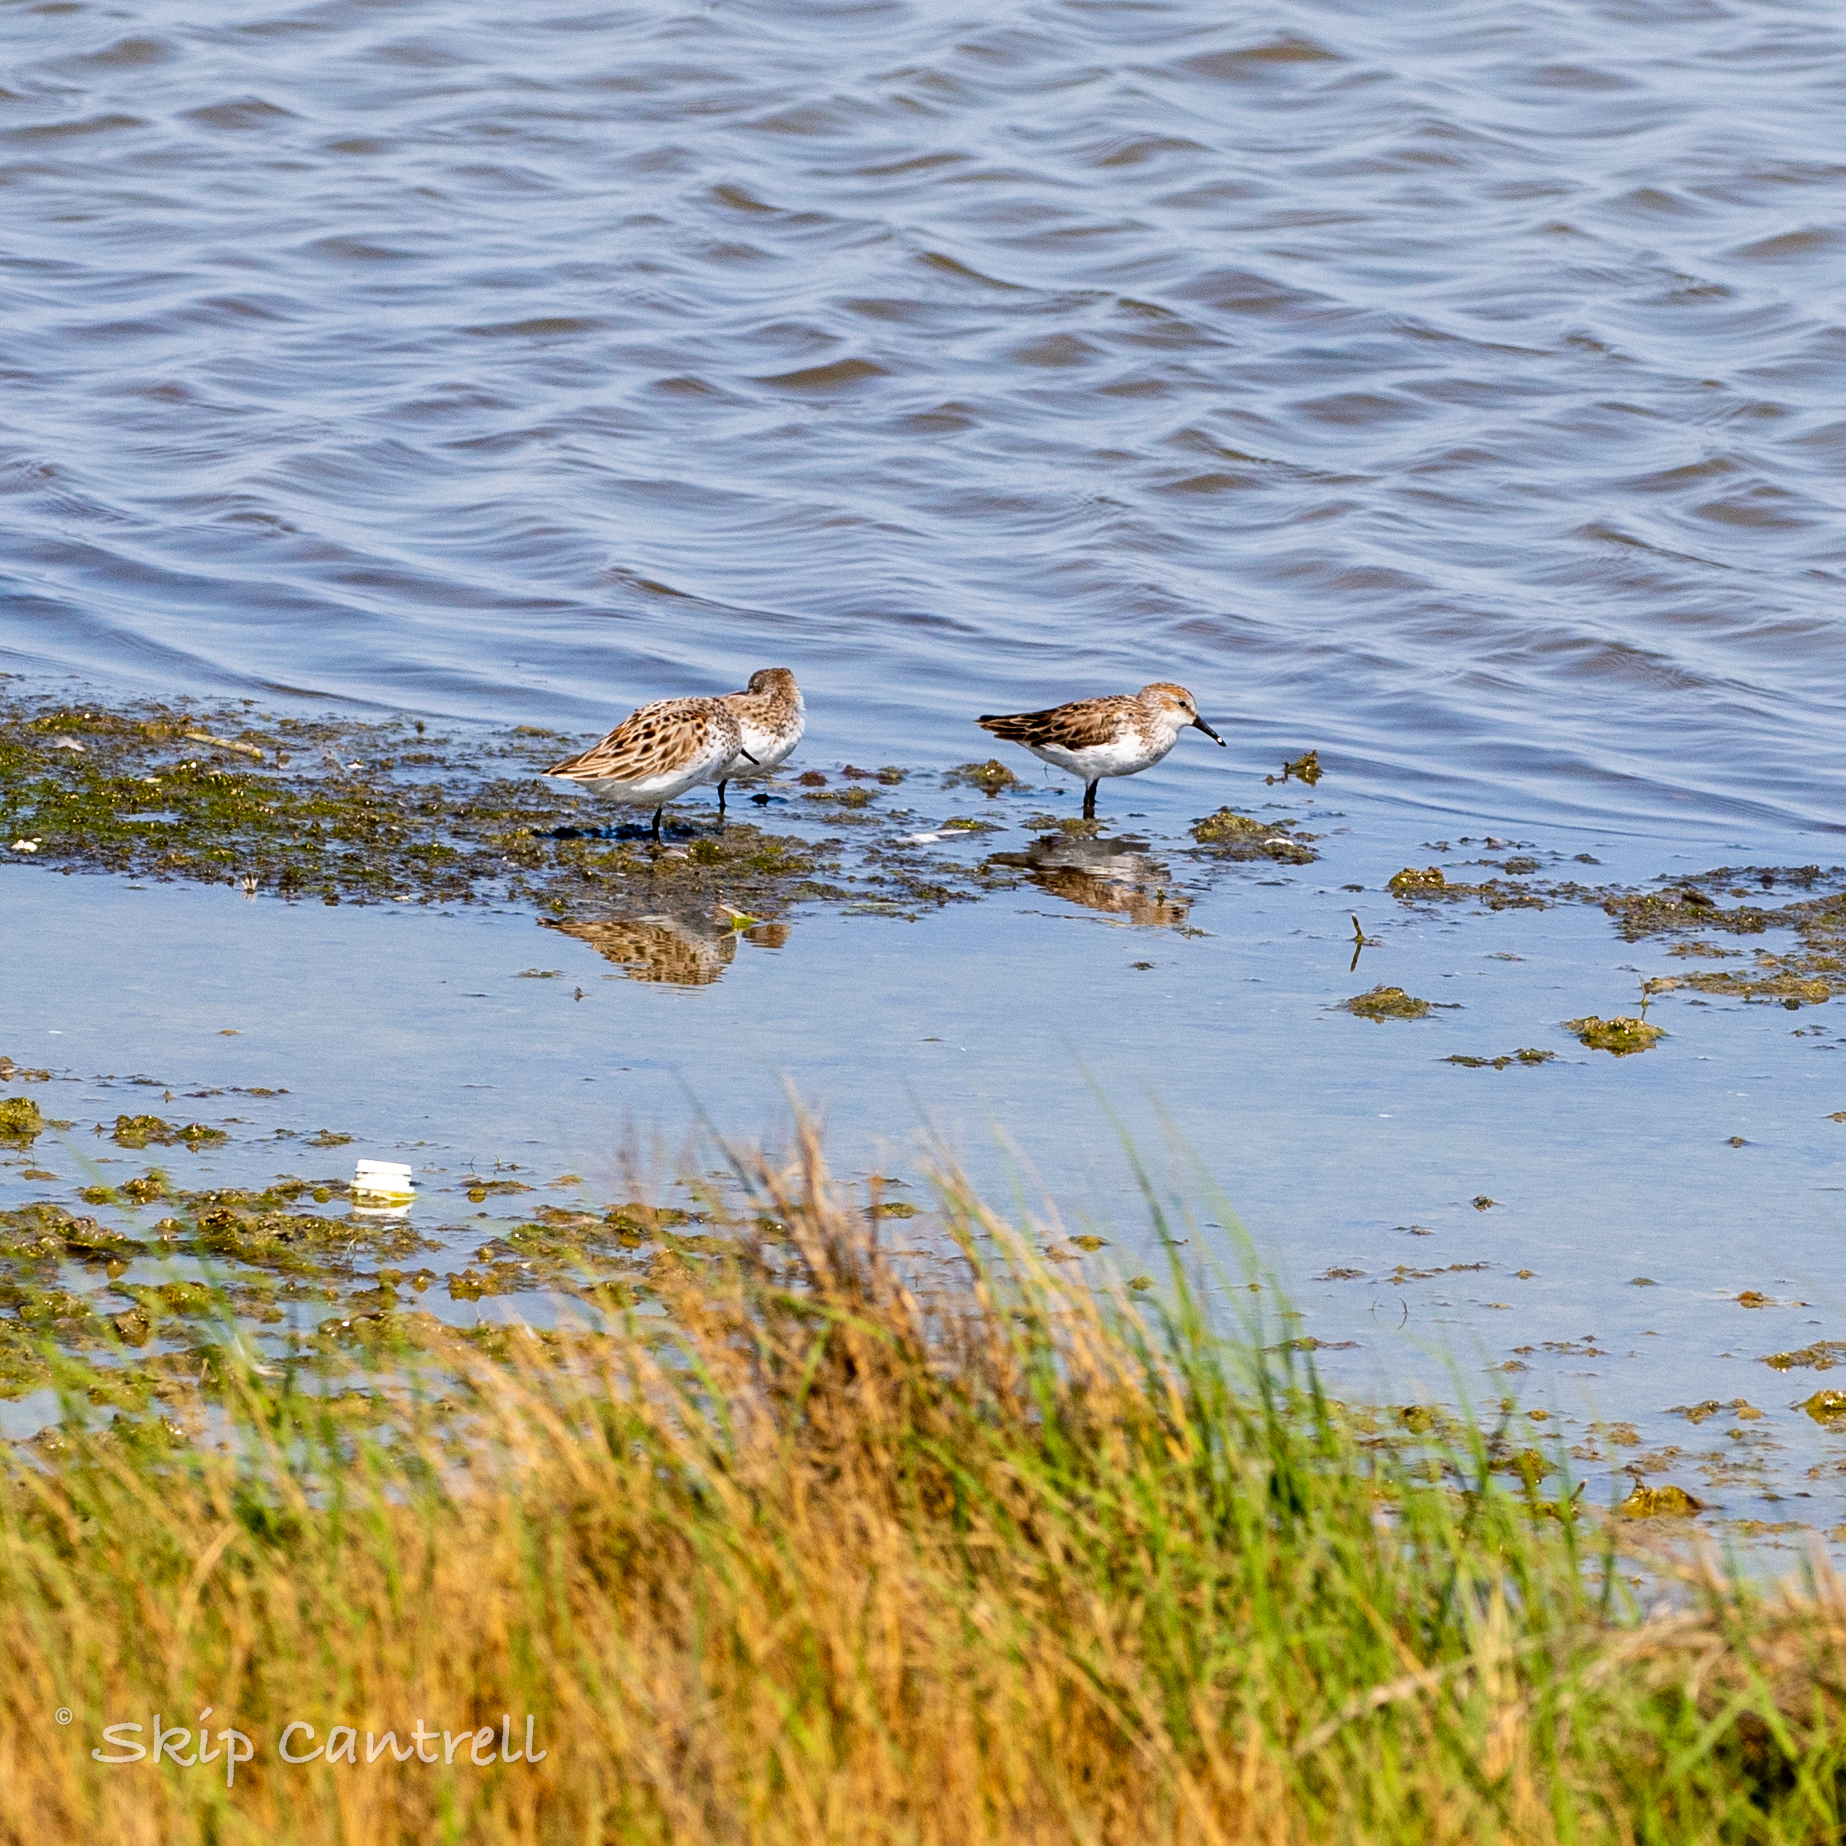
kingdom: Animalia
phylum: Chordata
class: Aves
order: Charadriiformes
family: Scolopacidae
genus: Calidris
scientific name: Calidris mauri
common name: Western sandpiper
